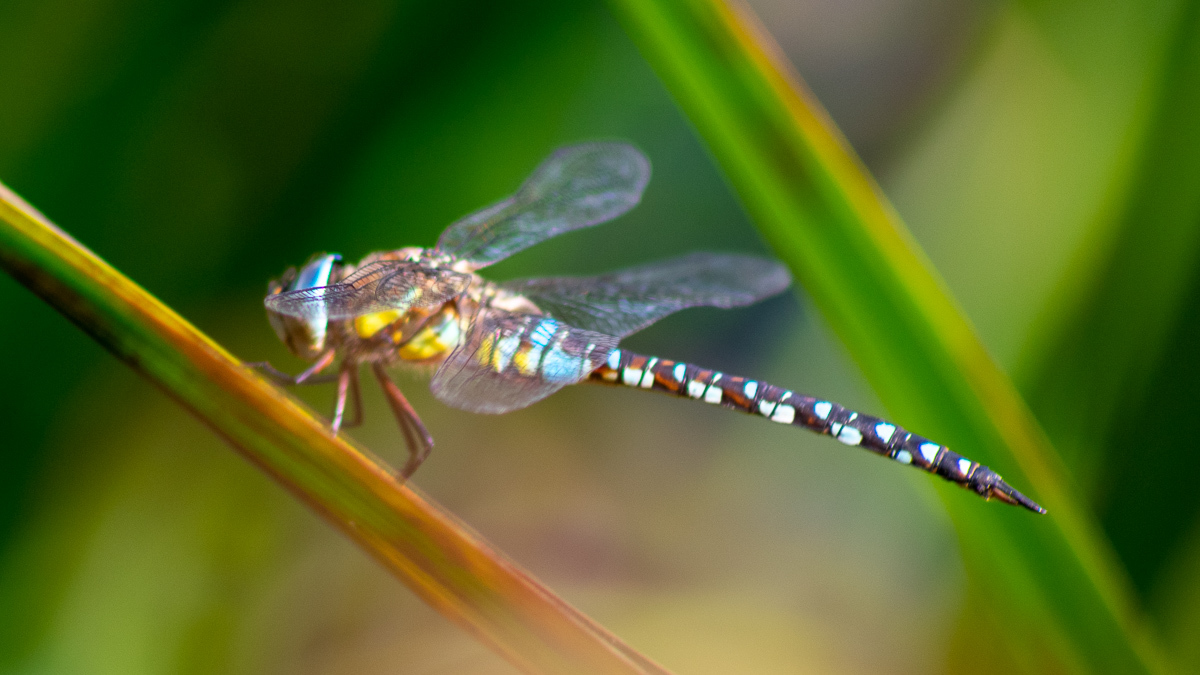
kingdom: Animalia
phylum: Arthropoda
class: Insecta
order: Odonata
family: Aeshnidae
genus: Aeshna
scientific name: Aeshna mixta
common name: Migrant hawker
